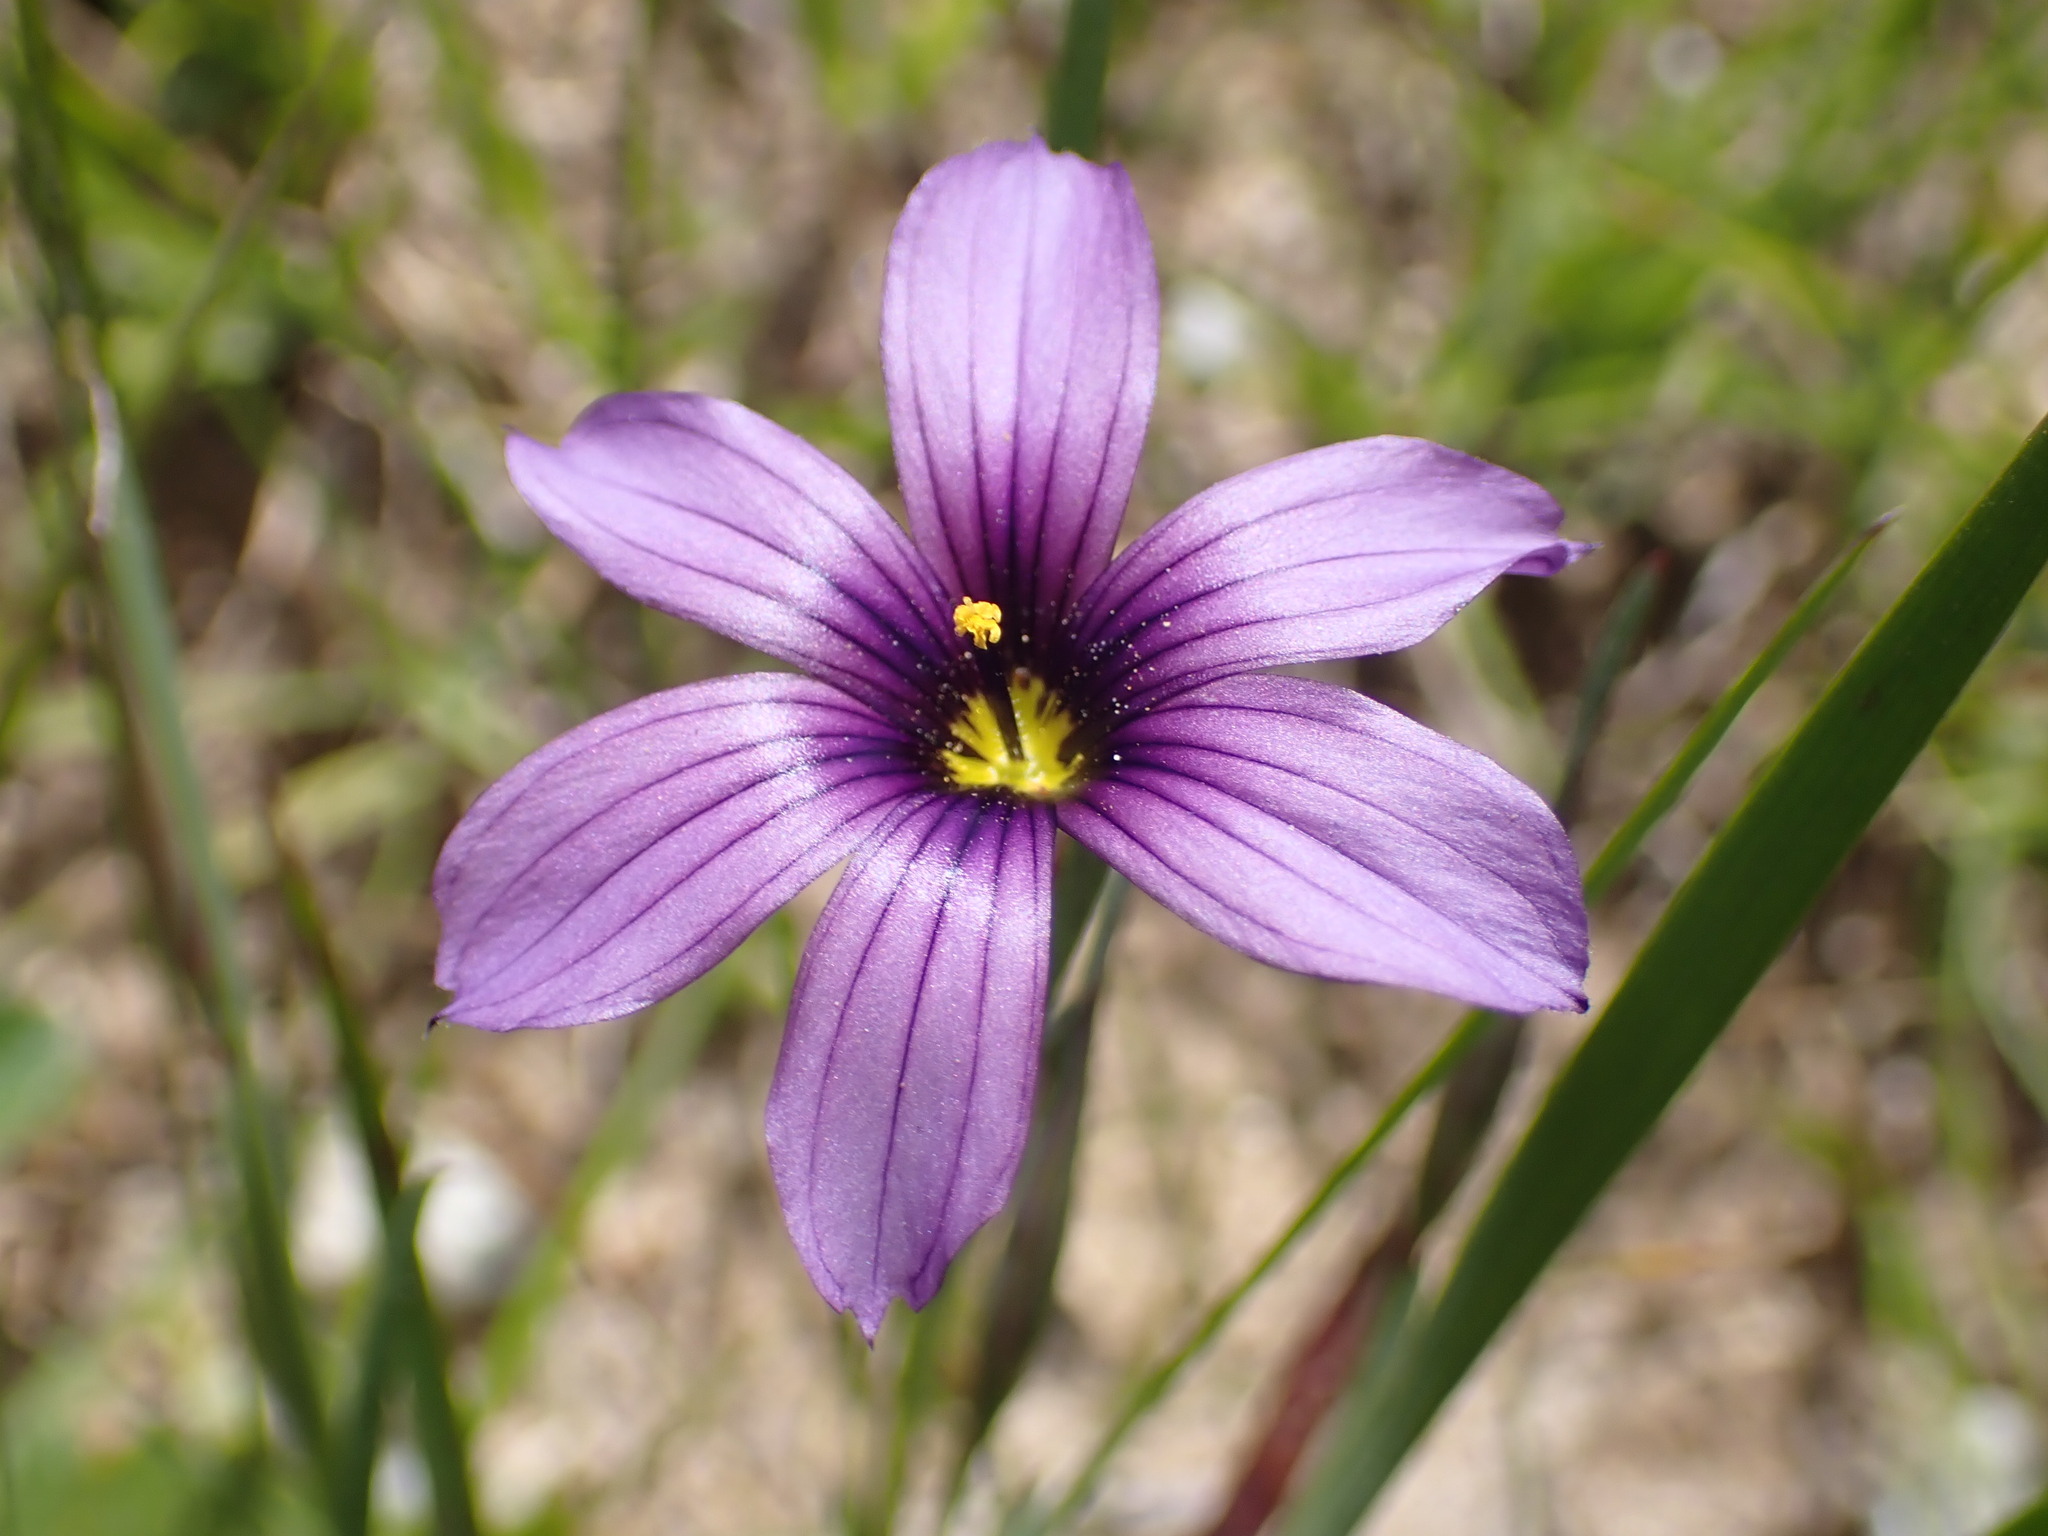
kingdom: Plantae
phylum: Tracheophyta
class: Liliopsida
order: Asparagales
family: Iridaceae
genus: Sisyrinchium
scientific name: Sisyrinchium bellum
